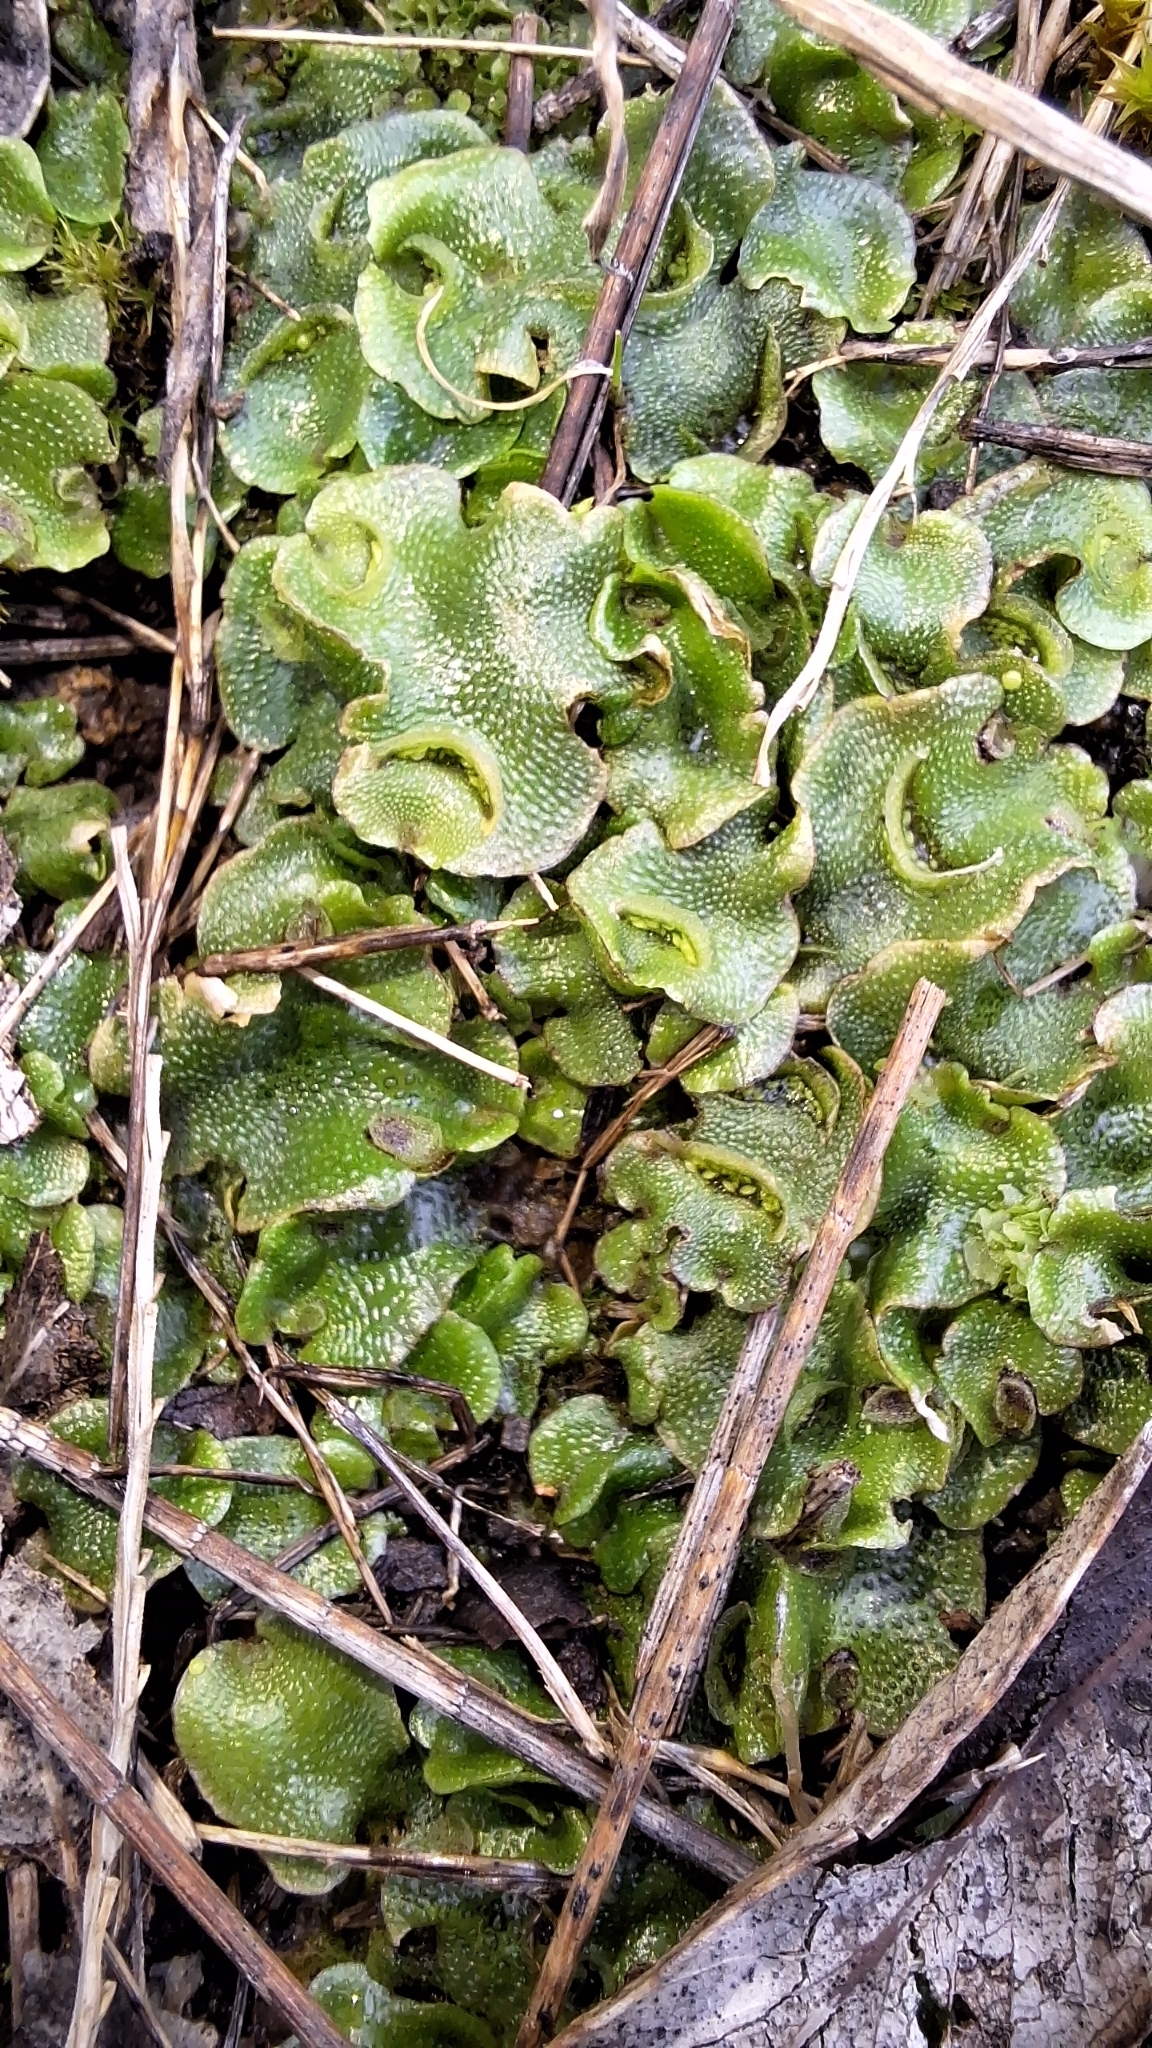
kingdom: Plantae
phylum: Marchantiophyta
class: Marchantiopsida
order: Lunulariales
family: Lunulariaceae
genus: Lunularia
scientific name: Lunularia cruciata
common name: Crescent-cup liverwort
